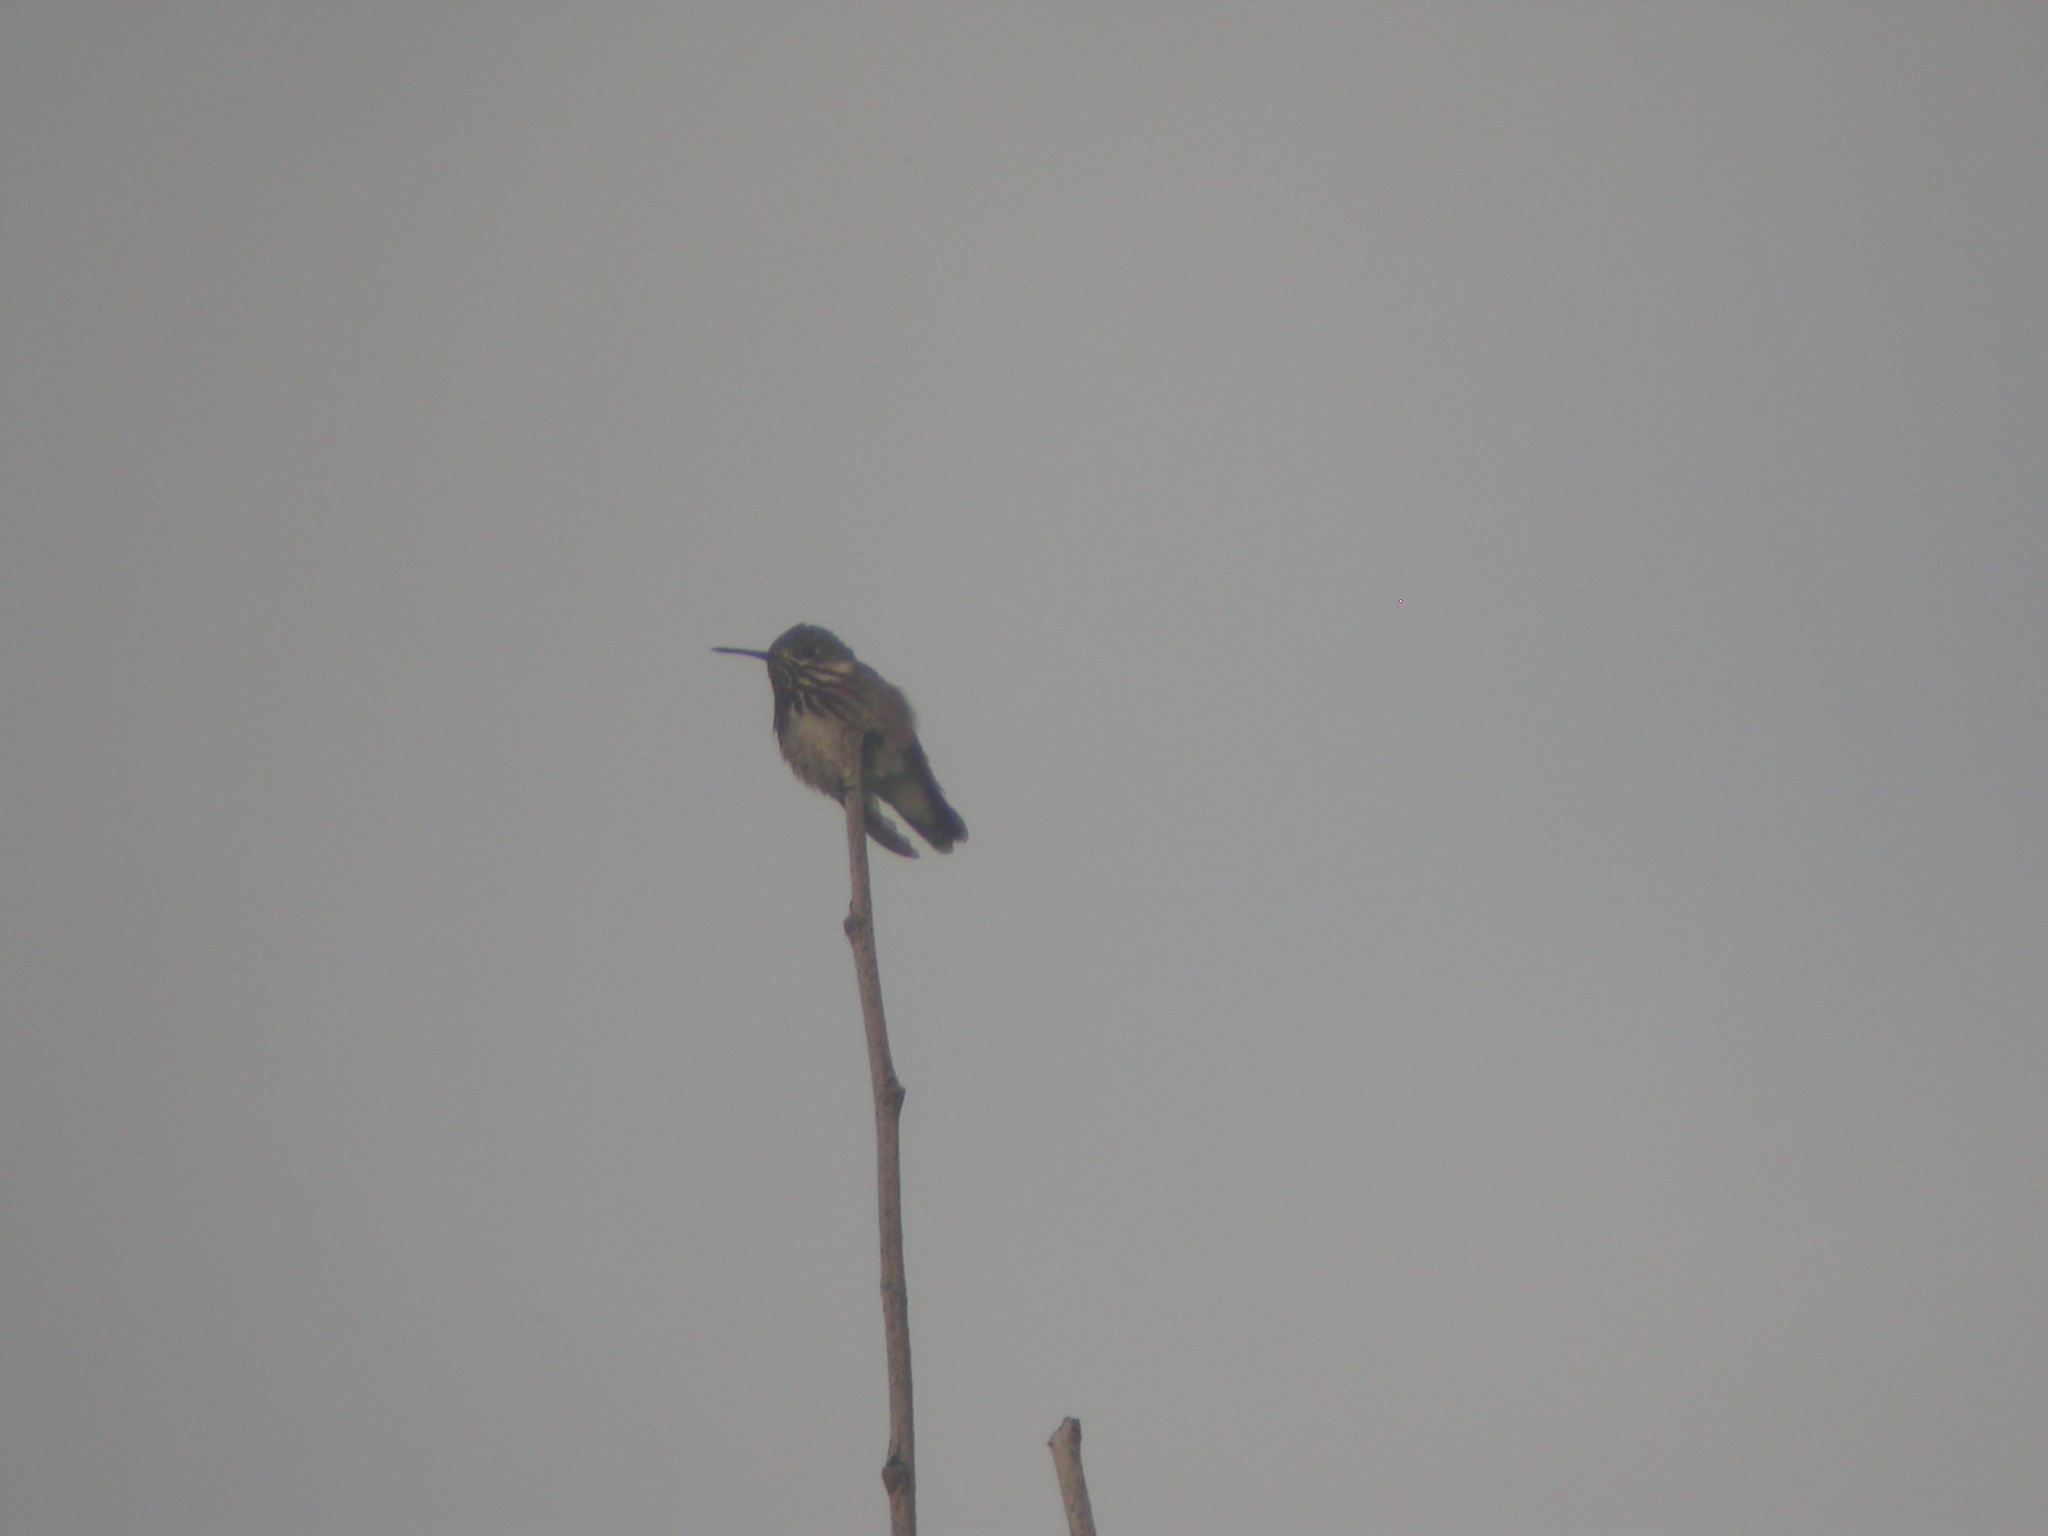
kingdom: Animalia
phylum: Chordata
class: Aves
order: Apodiformes
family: Trochilidae
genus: Selasphorus
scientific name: Selasphorus calliope
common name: Calliope hummingbird
